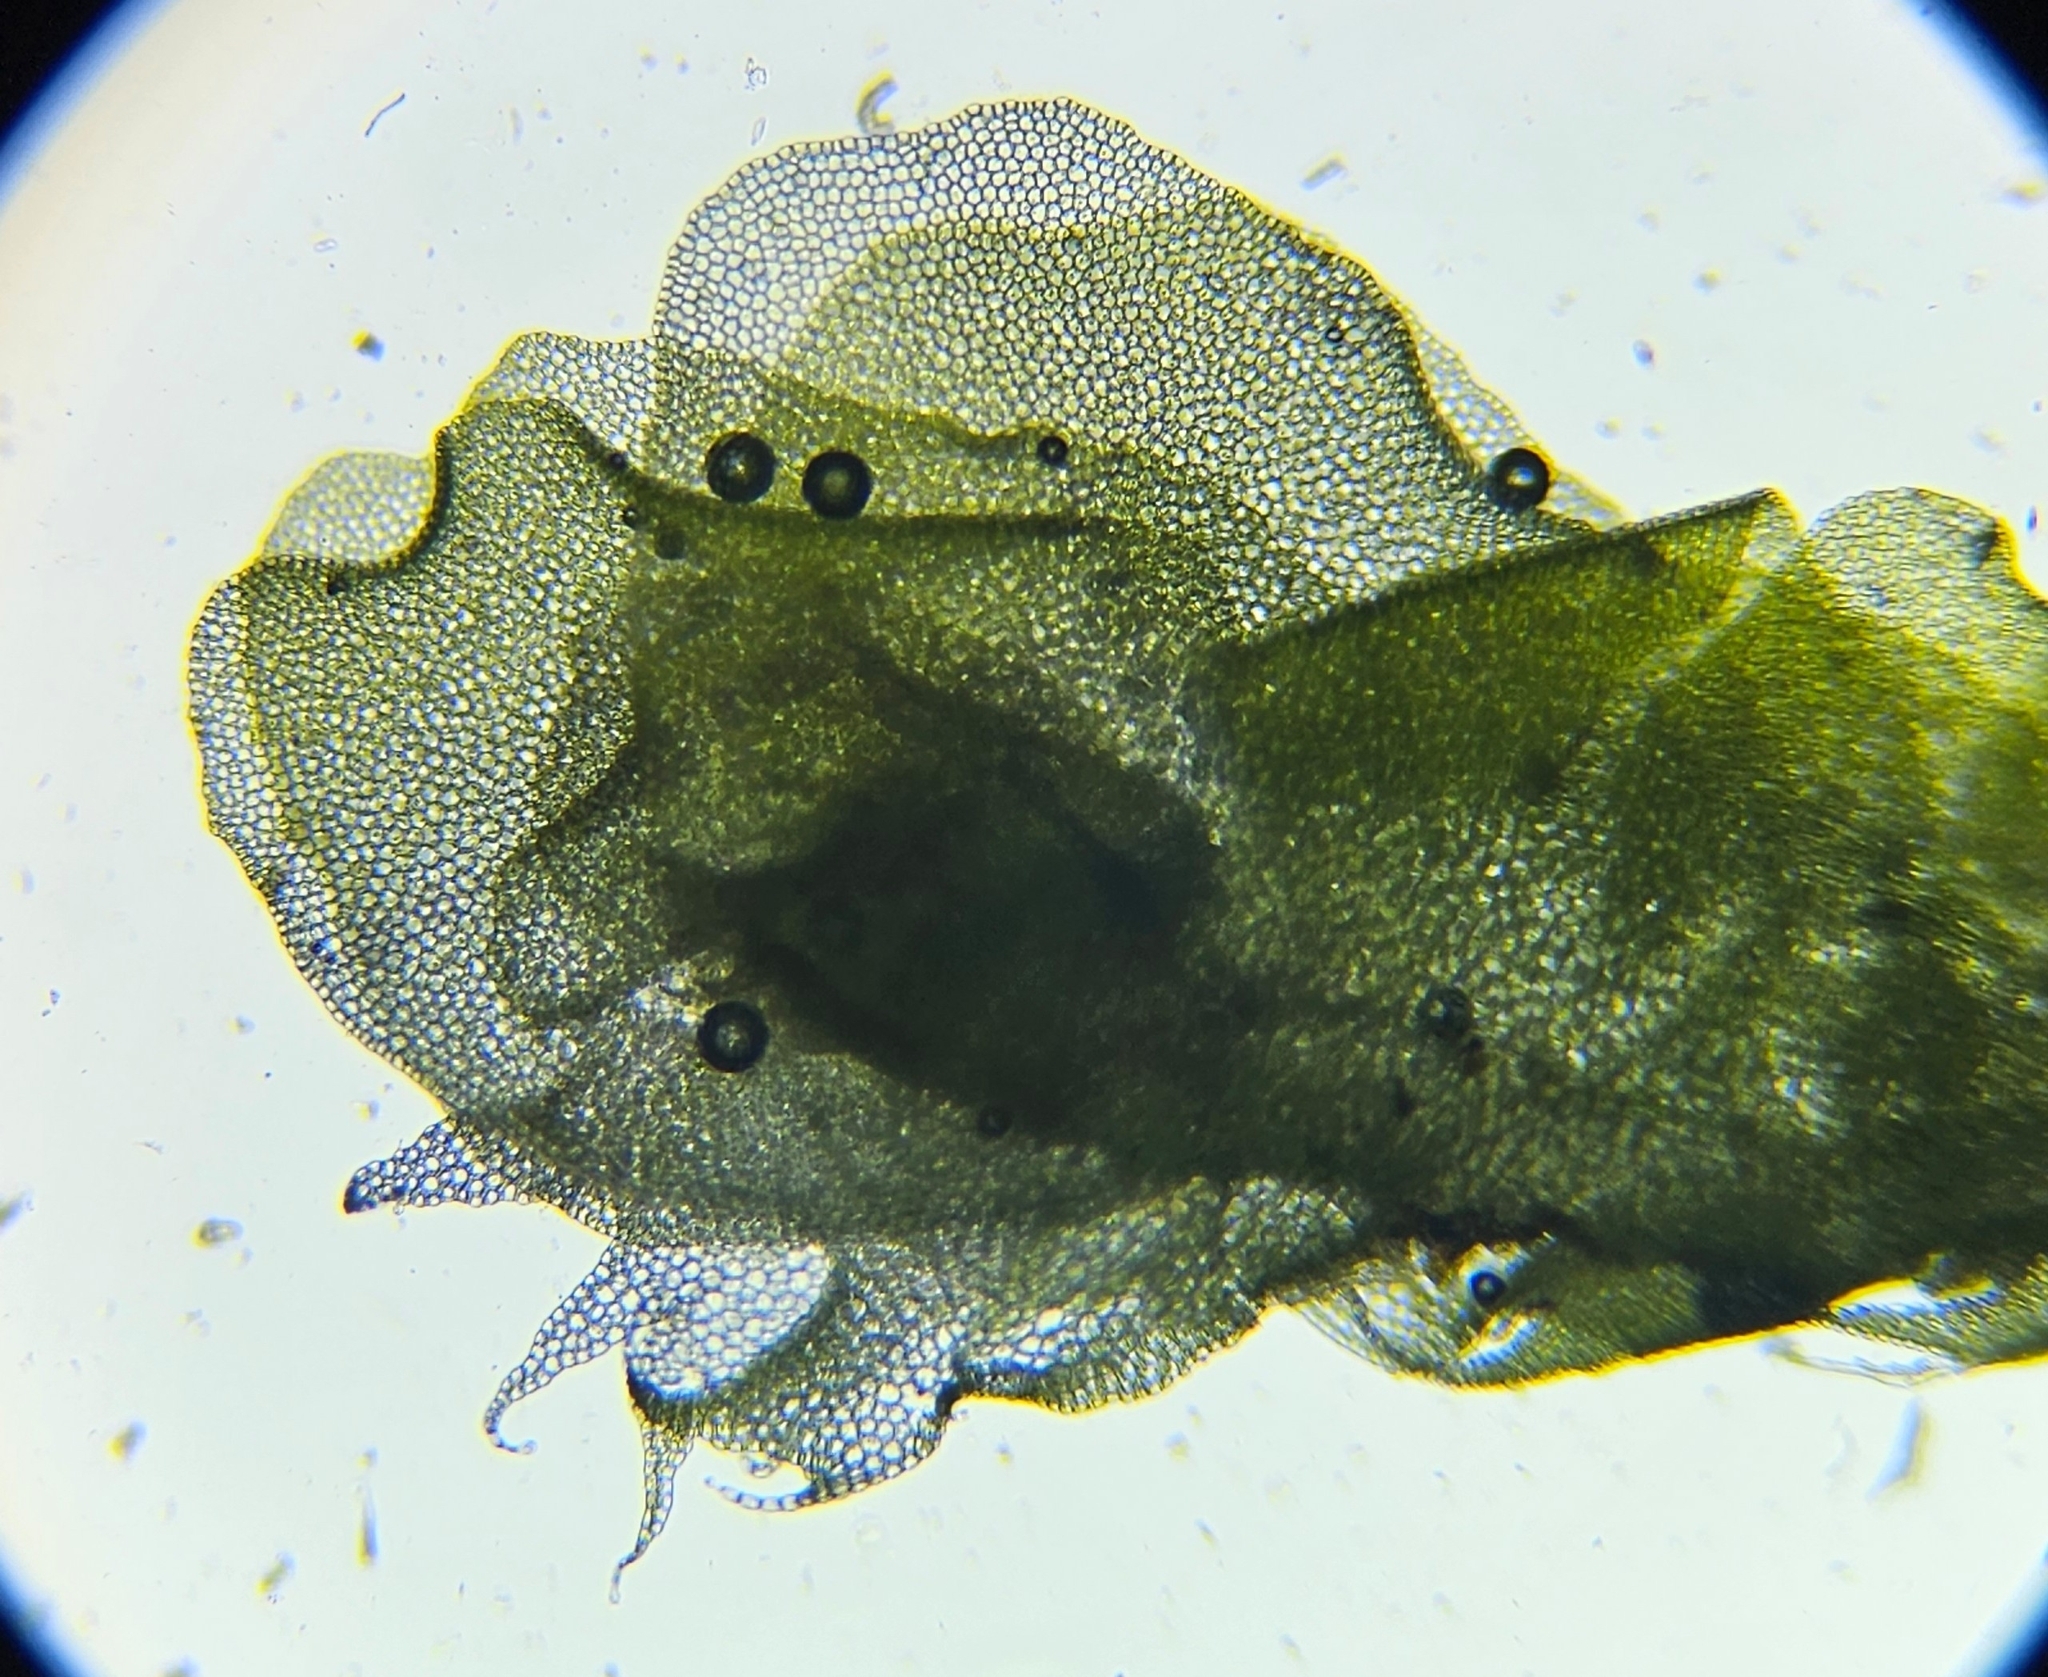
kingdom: Plantae
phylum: Marchantiophyta
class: Jungermanniopsida
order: Jungermanniales
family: Lophocoleaceae
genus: Lophocolea
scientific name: Lophocolea semiteres
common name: Southern crestwort
